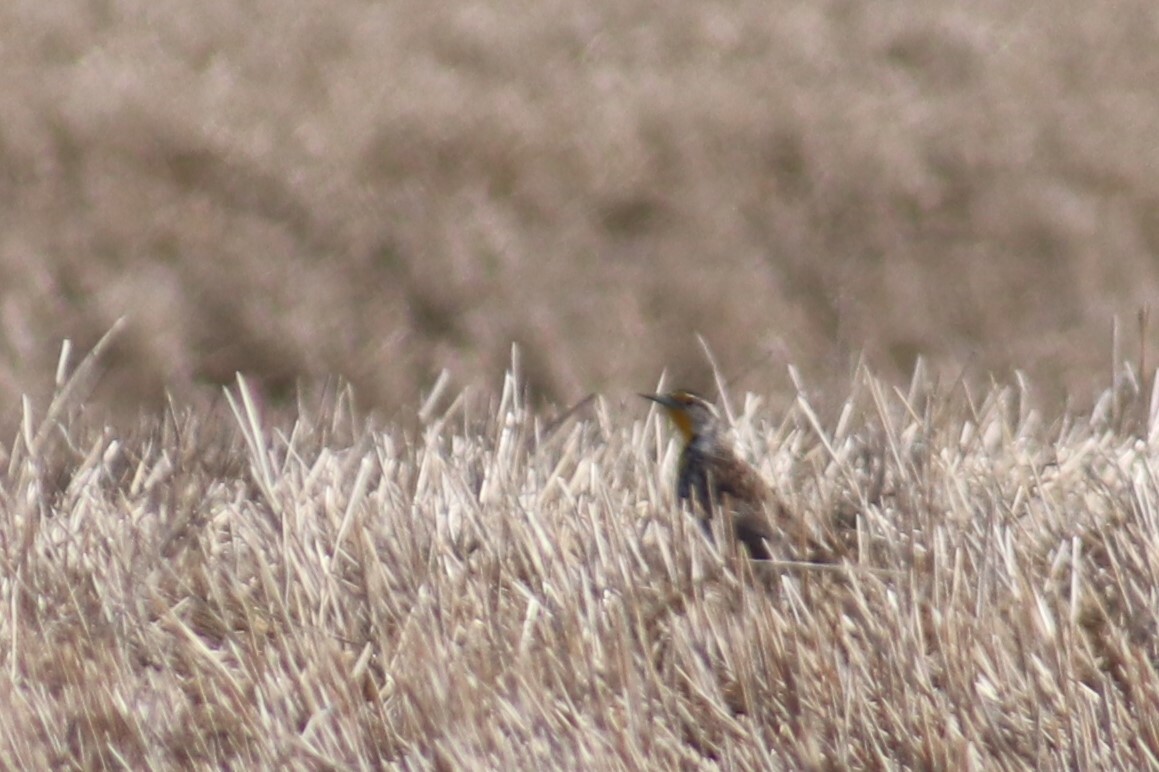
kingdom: Animalia
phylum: Chordata
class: Aves
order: Passeriformes
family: Icteridae
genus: Sturnella
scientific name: Sturnella neglecta
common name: Western meadowlark
